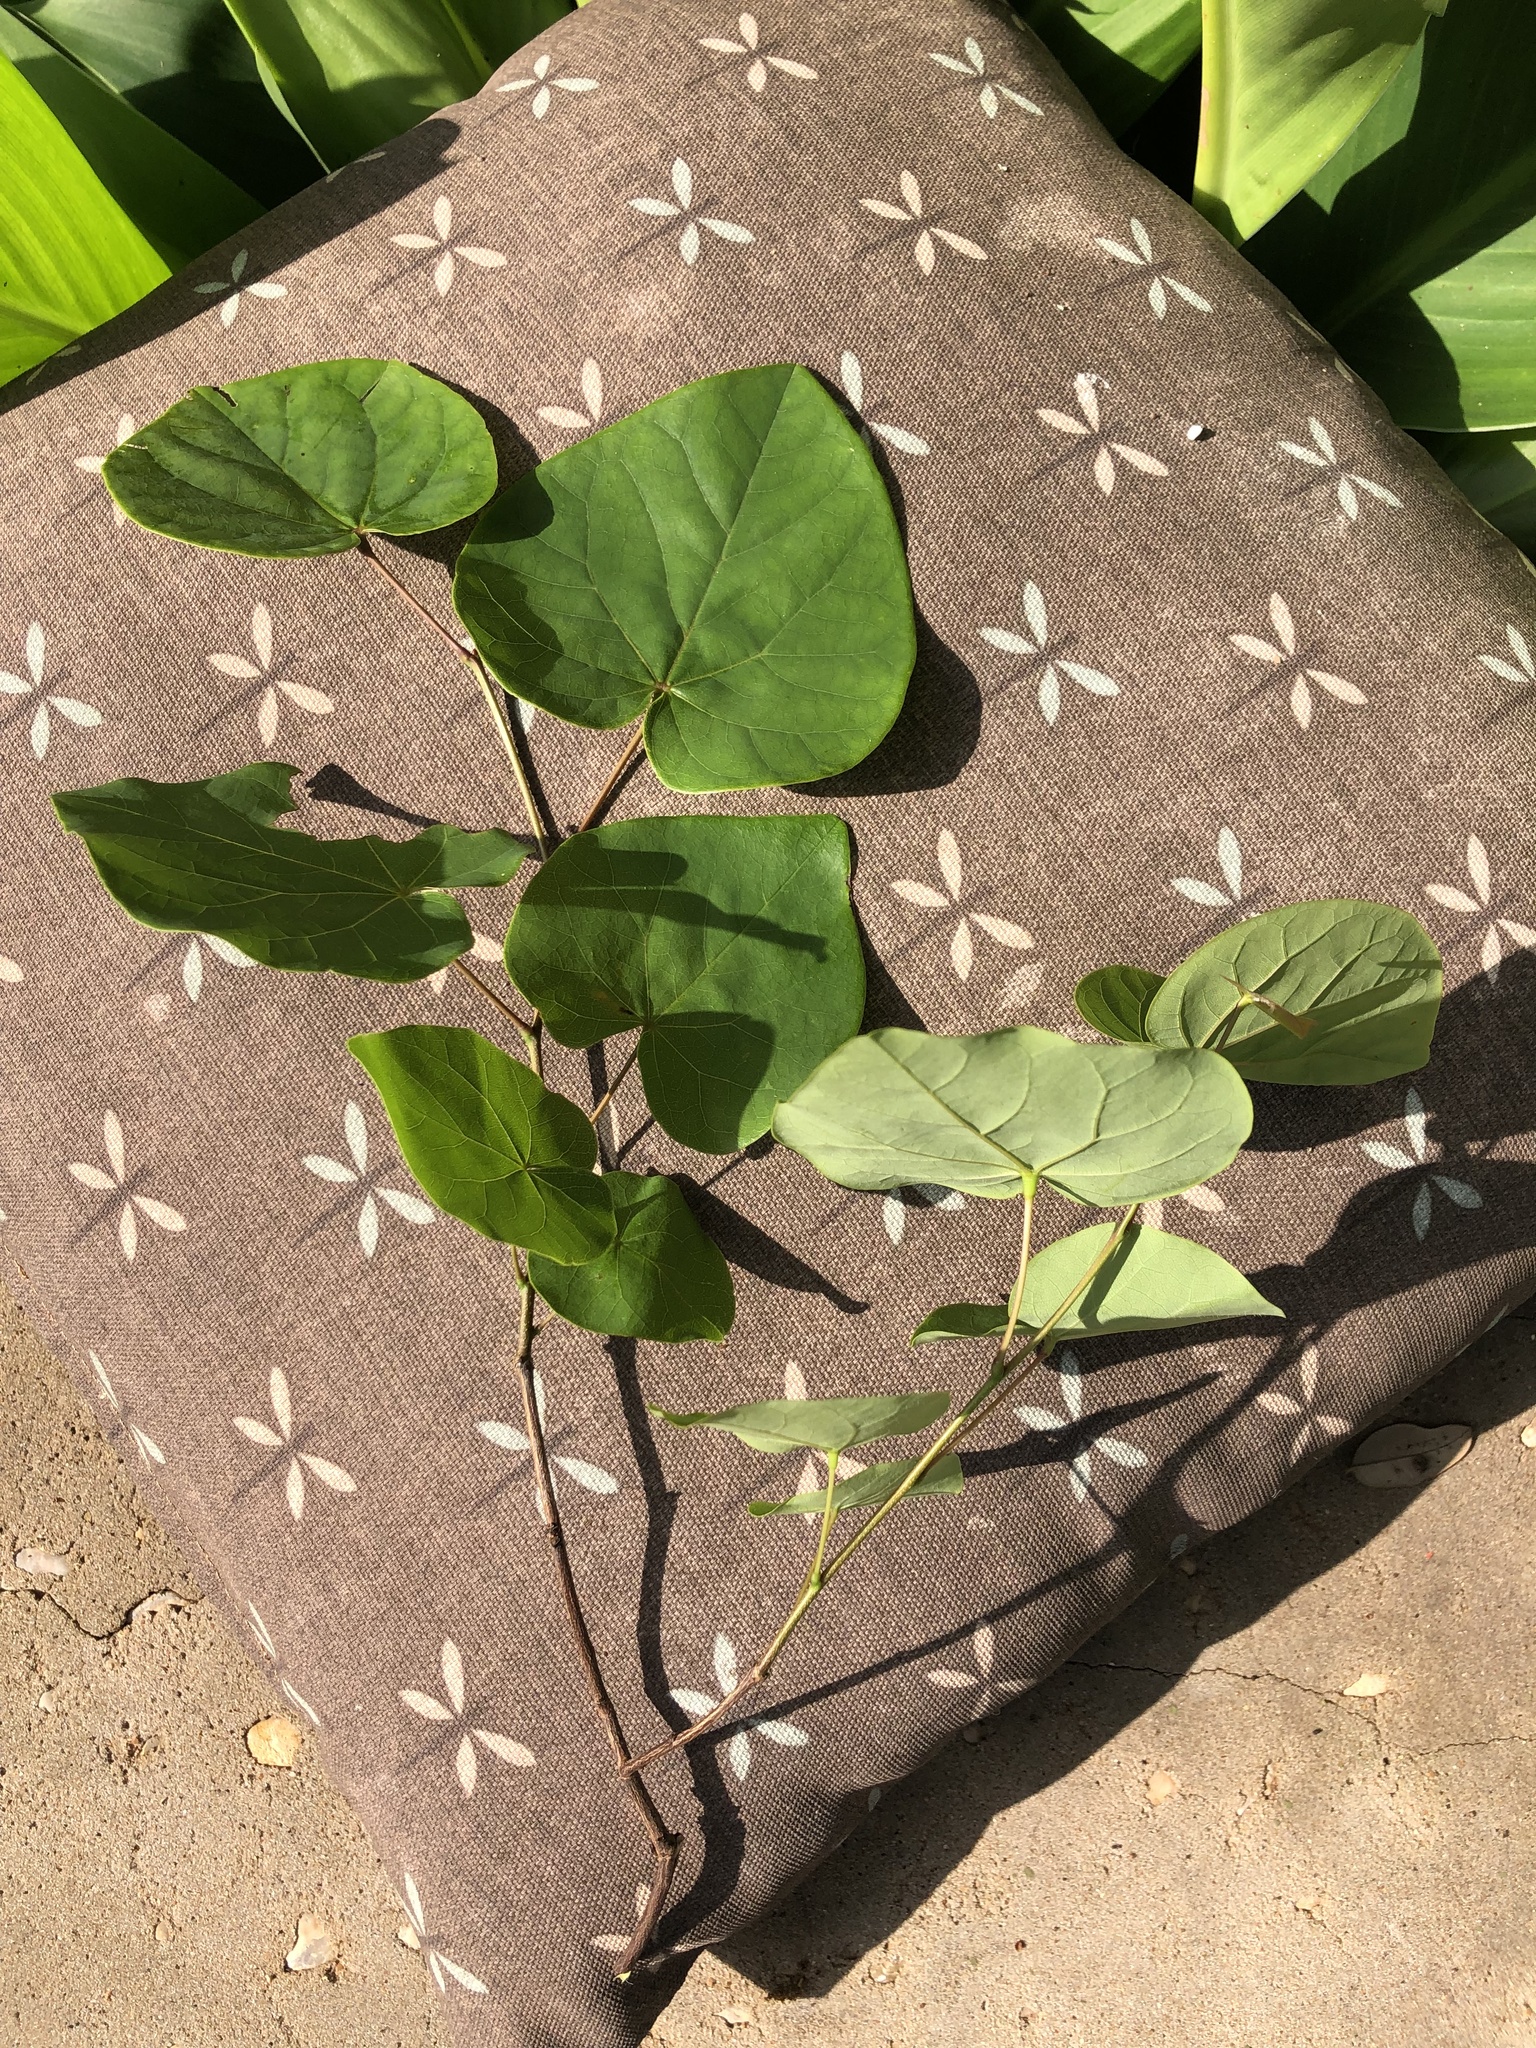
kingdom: Plantae
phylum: Tracheophyta
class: Magnoliopsida
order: Fabales
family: Fabaceae
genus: Cercis
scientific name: Cercis canadensis
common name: Eastern redbud
